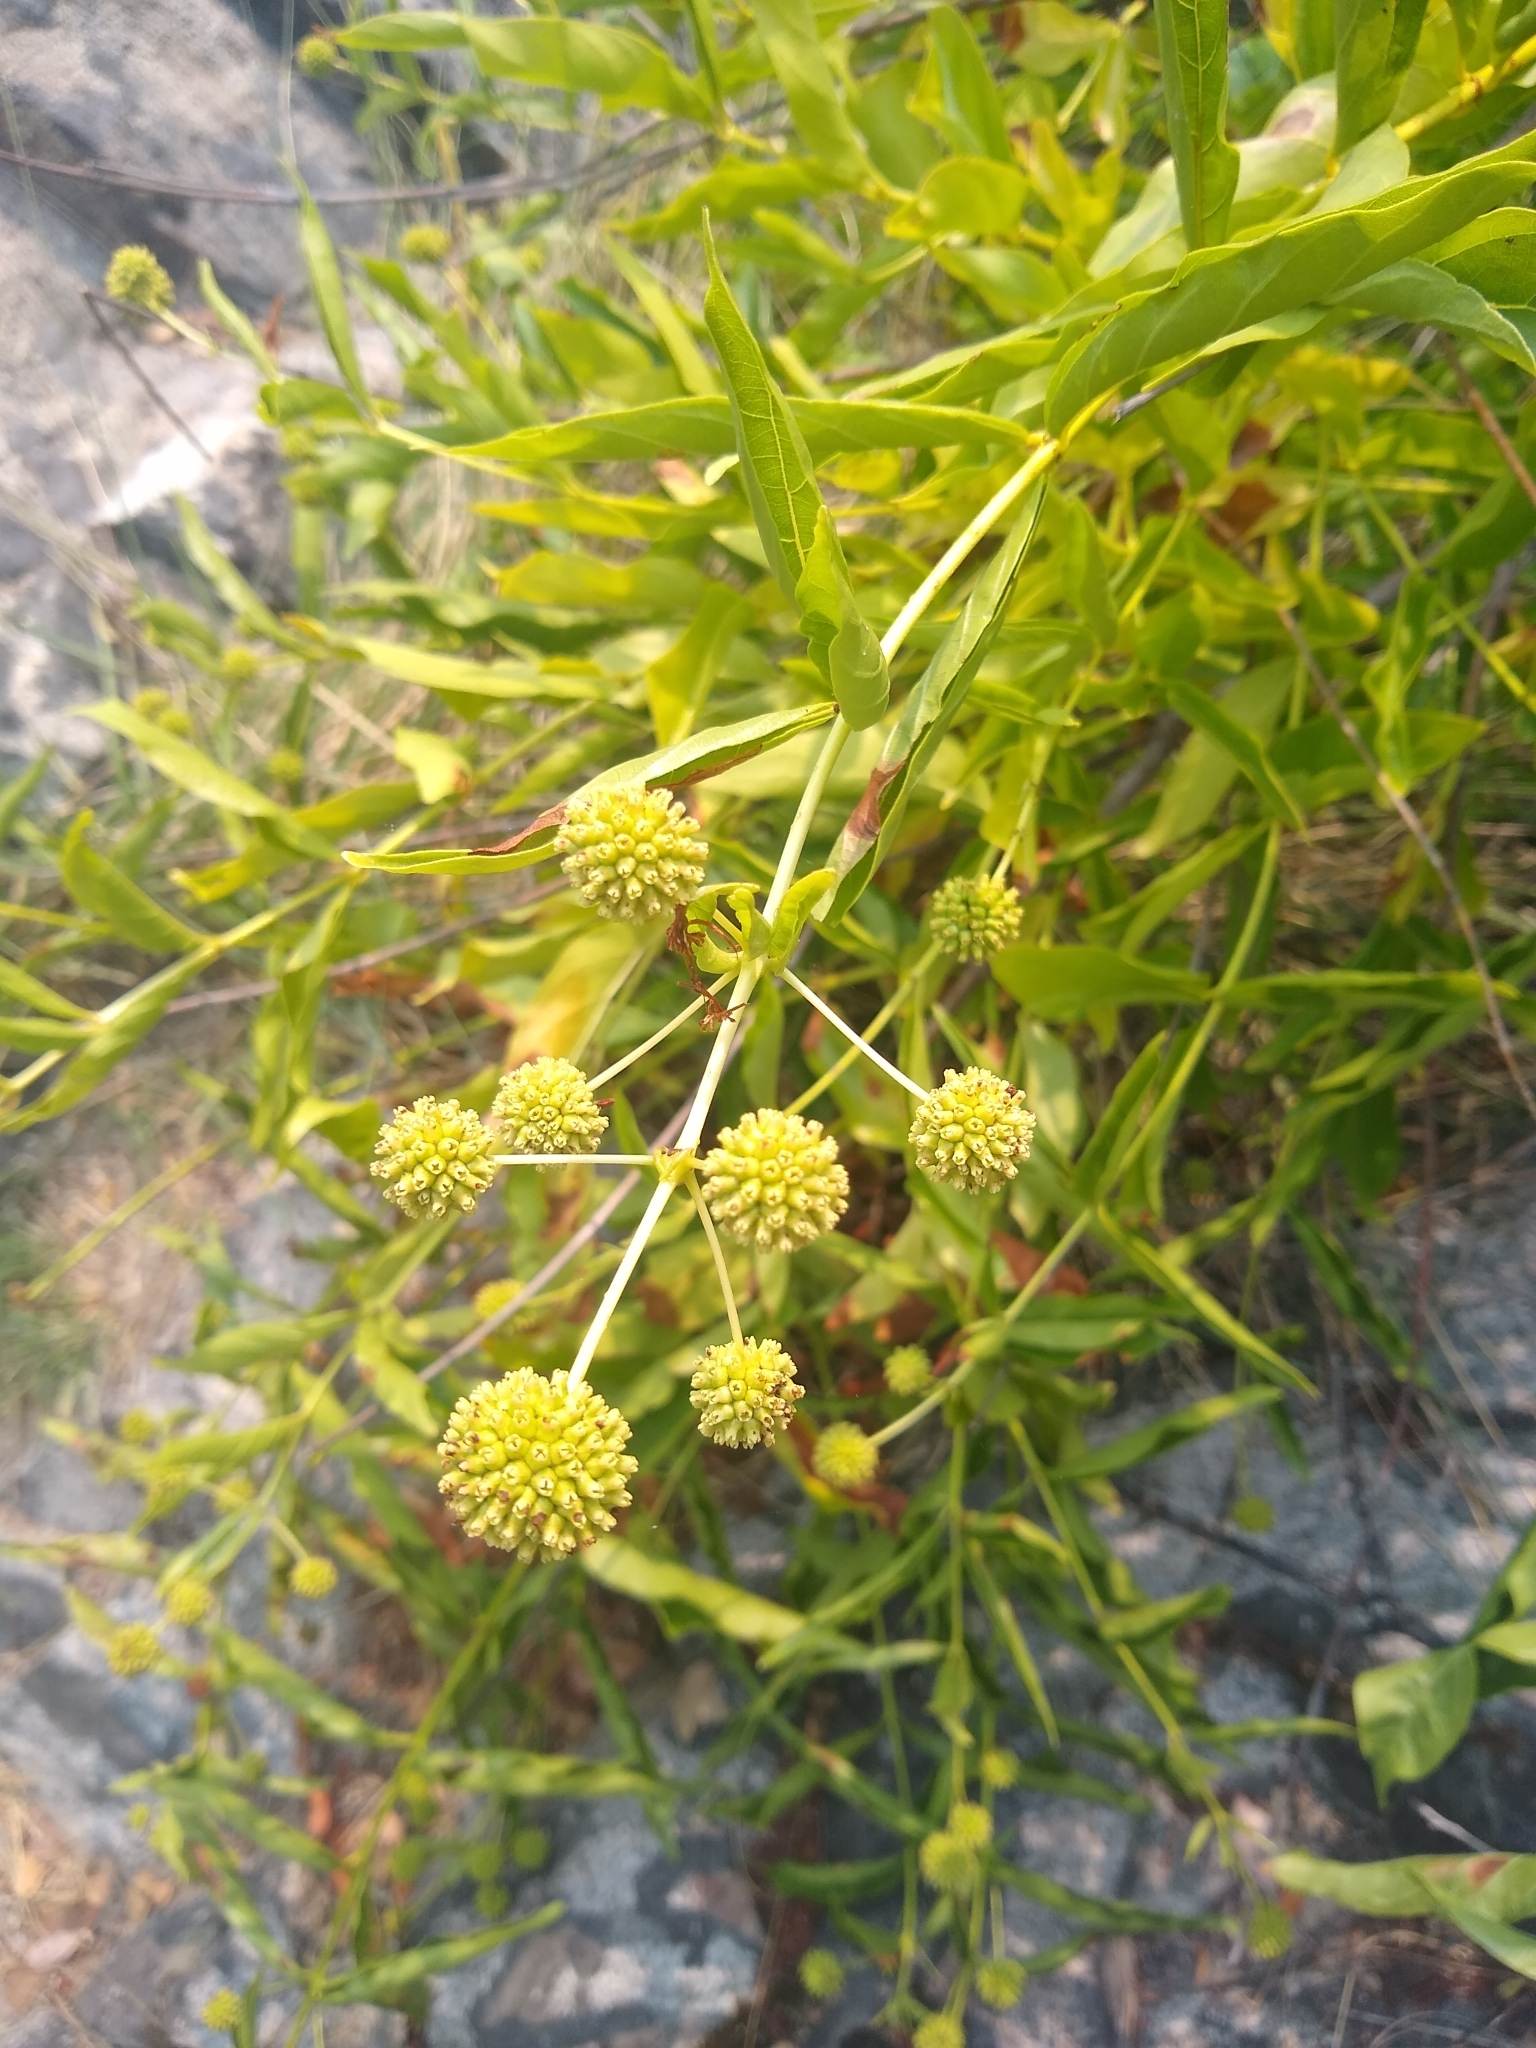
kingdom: Plantae
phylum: Tracheophyta
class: Magnoliopsida
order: Gentianales
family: Rubiaceae
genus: Cephalanthus
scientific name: Cephalanthus occidentalis
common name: Button-willow
